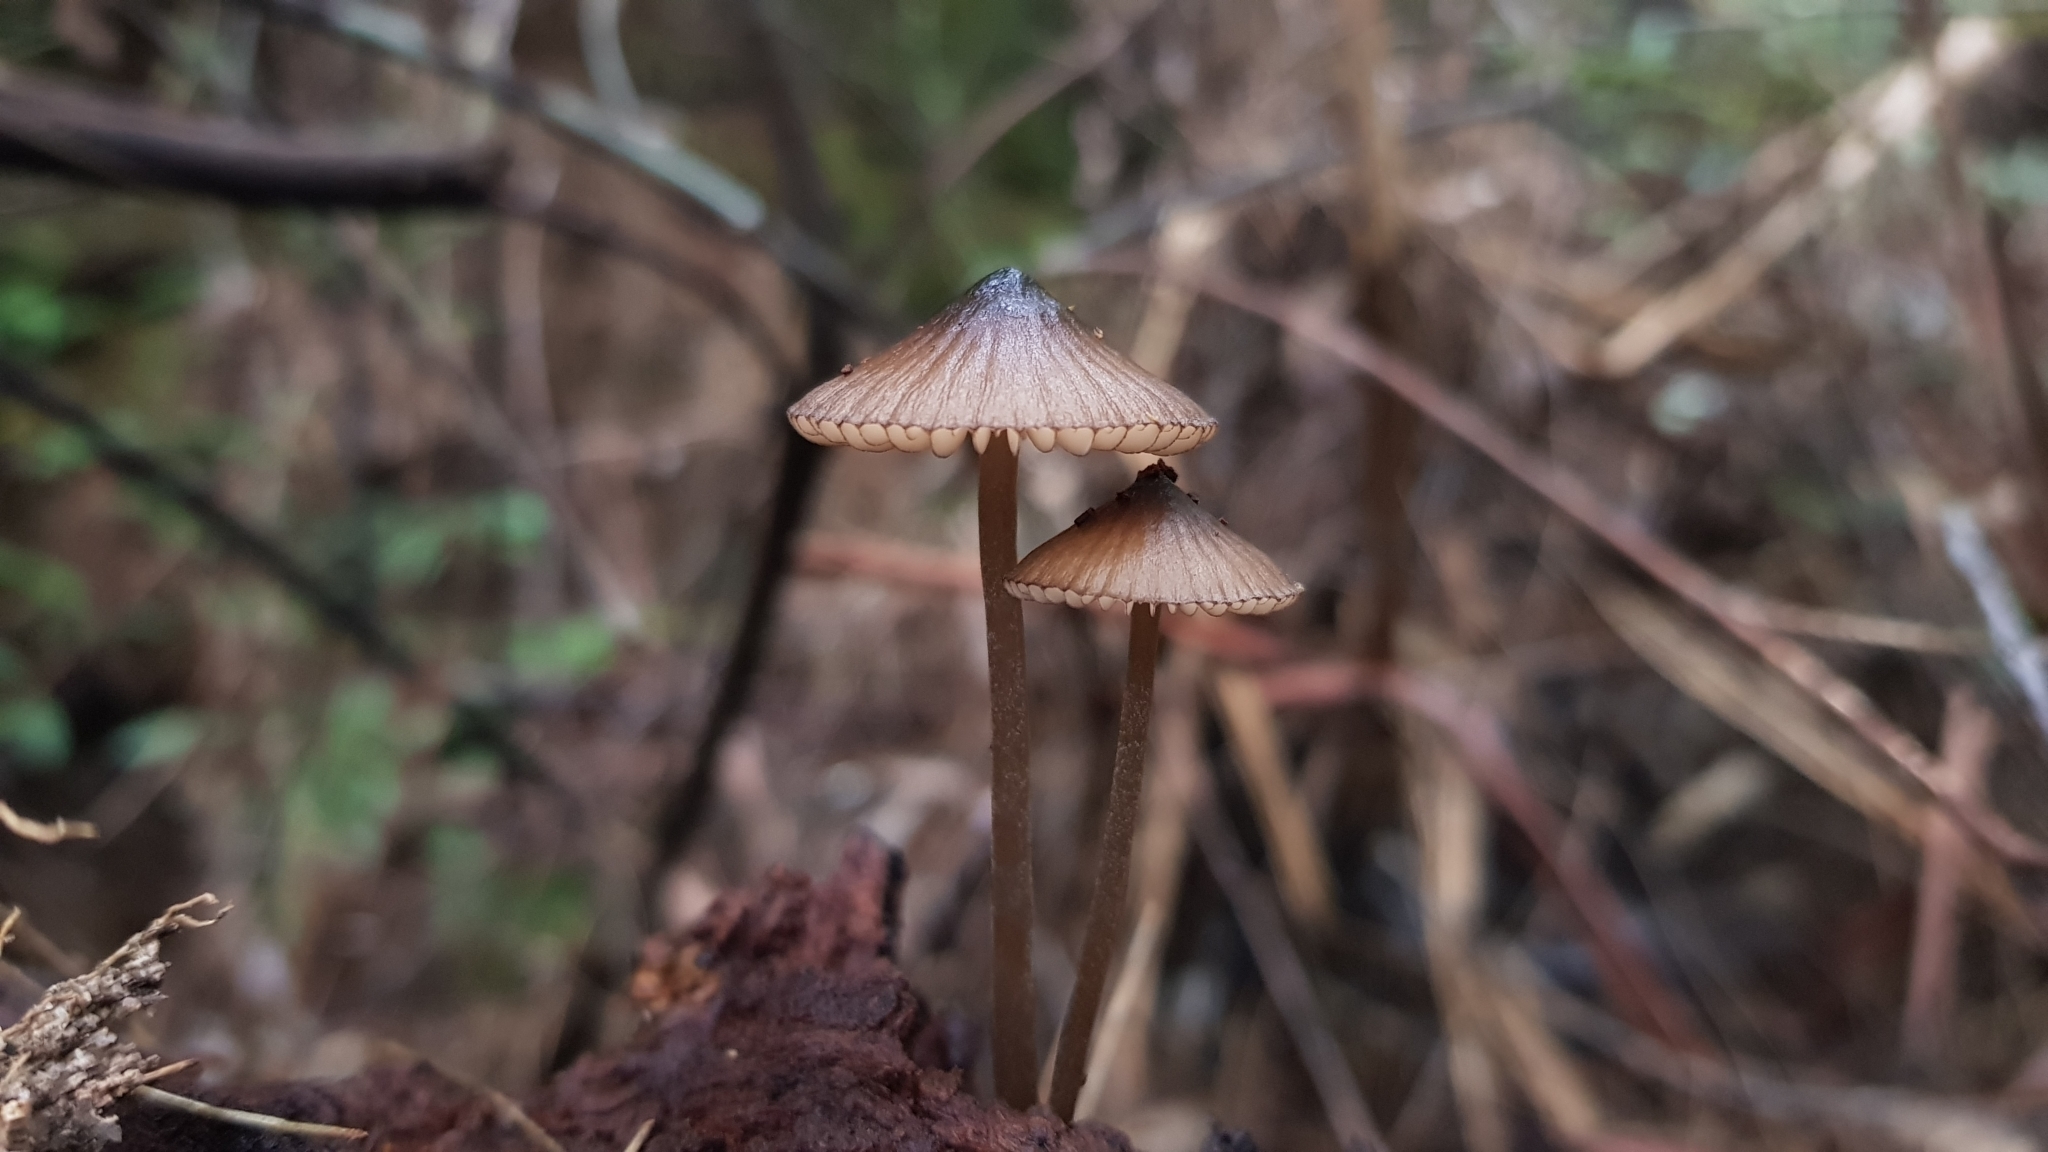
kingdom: Fungi
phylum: Basidiomycota
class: Agaricomycetes
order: Agaricales
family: Mycenaceae
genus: Mycena
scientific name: Mycena mulawaestris
